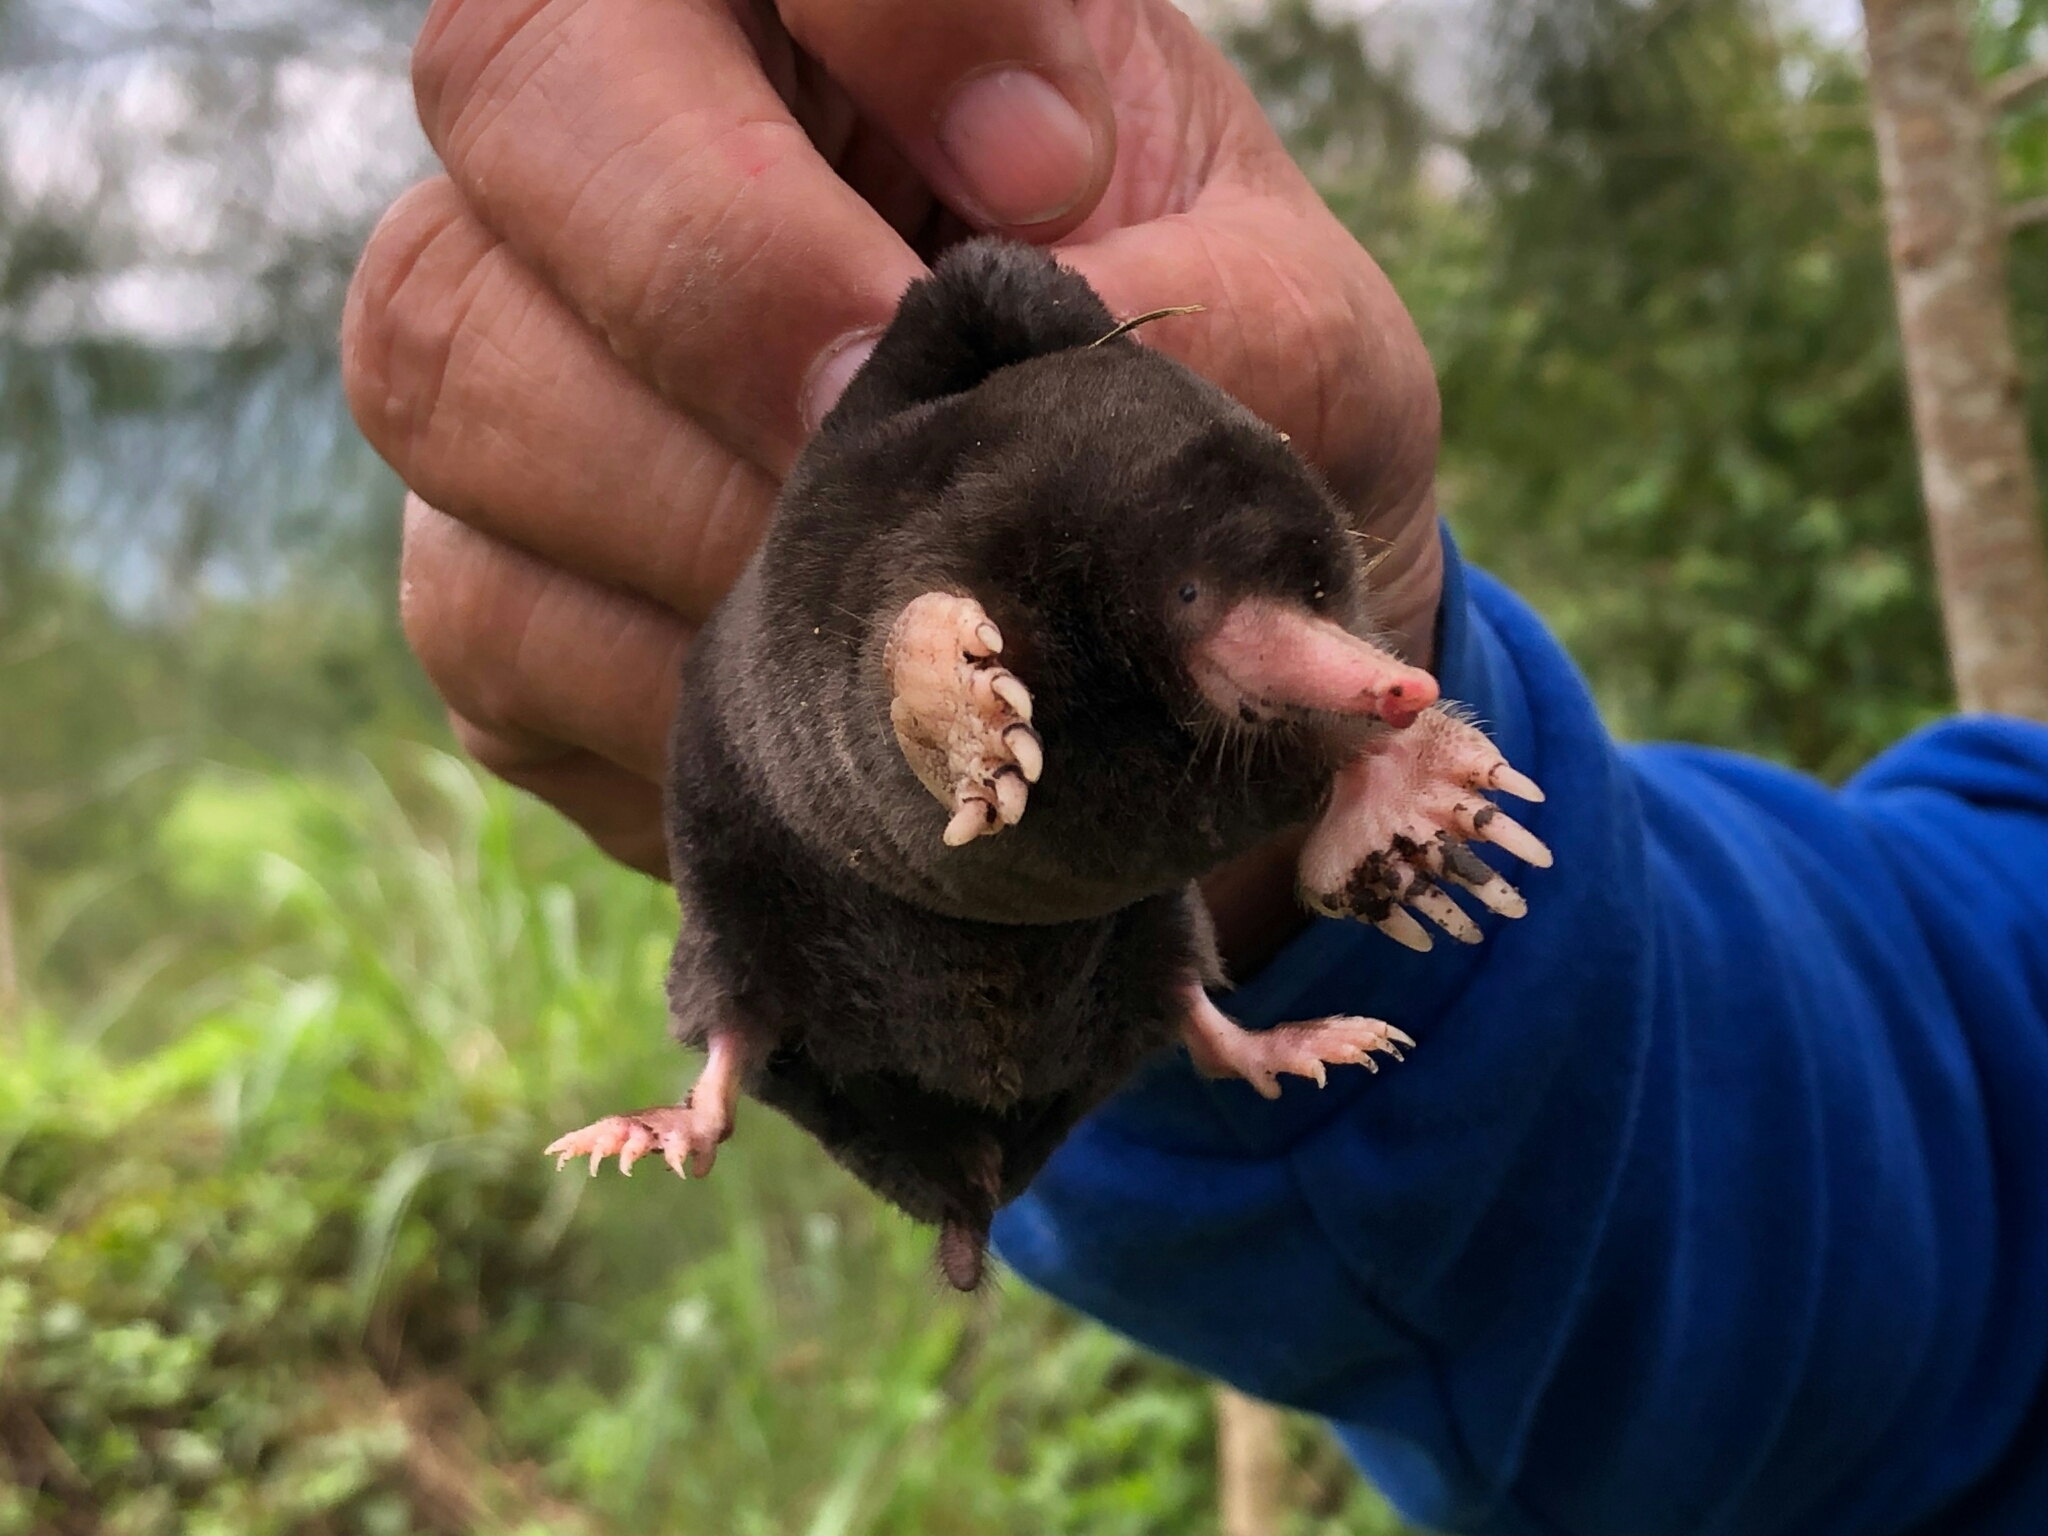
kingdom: Animalia
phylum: Chordata
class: Mammalia
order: Soricomorpha
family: Talpidae
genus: Mogera
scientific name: Mogera kanoana
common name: Kano’s mole
